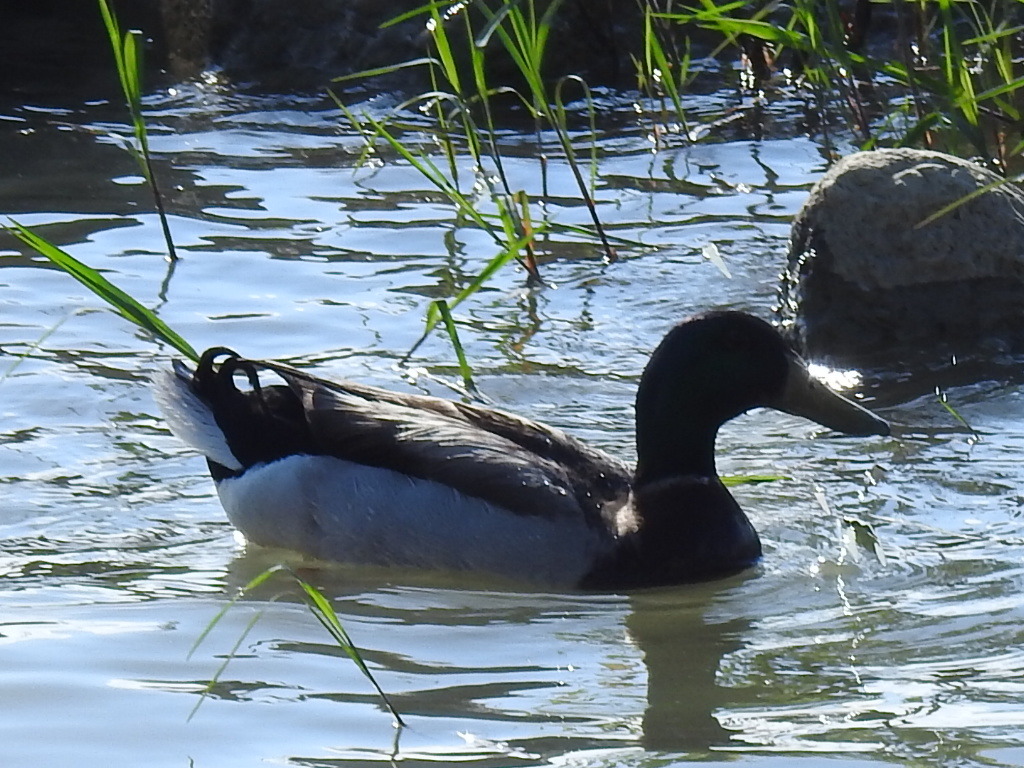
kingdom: Animalia
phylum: Chordata
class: Aves
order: Anseriformes
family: Anatidae
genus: Anas
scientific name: Anas platyrhynchos
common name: Mallard
